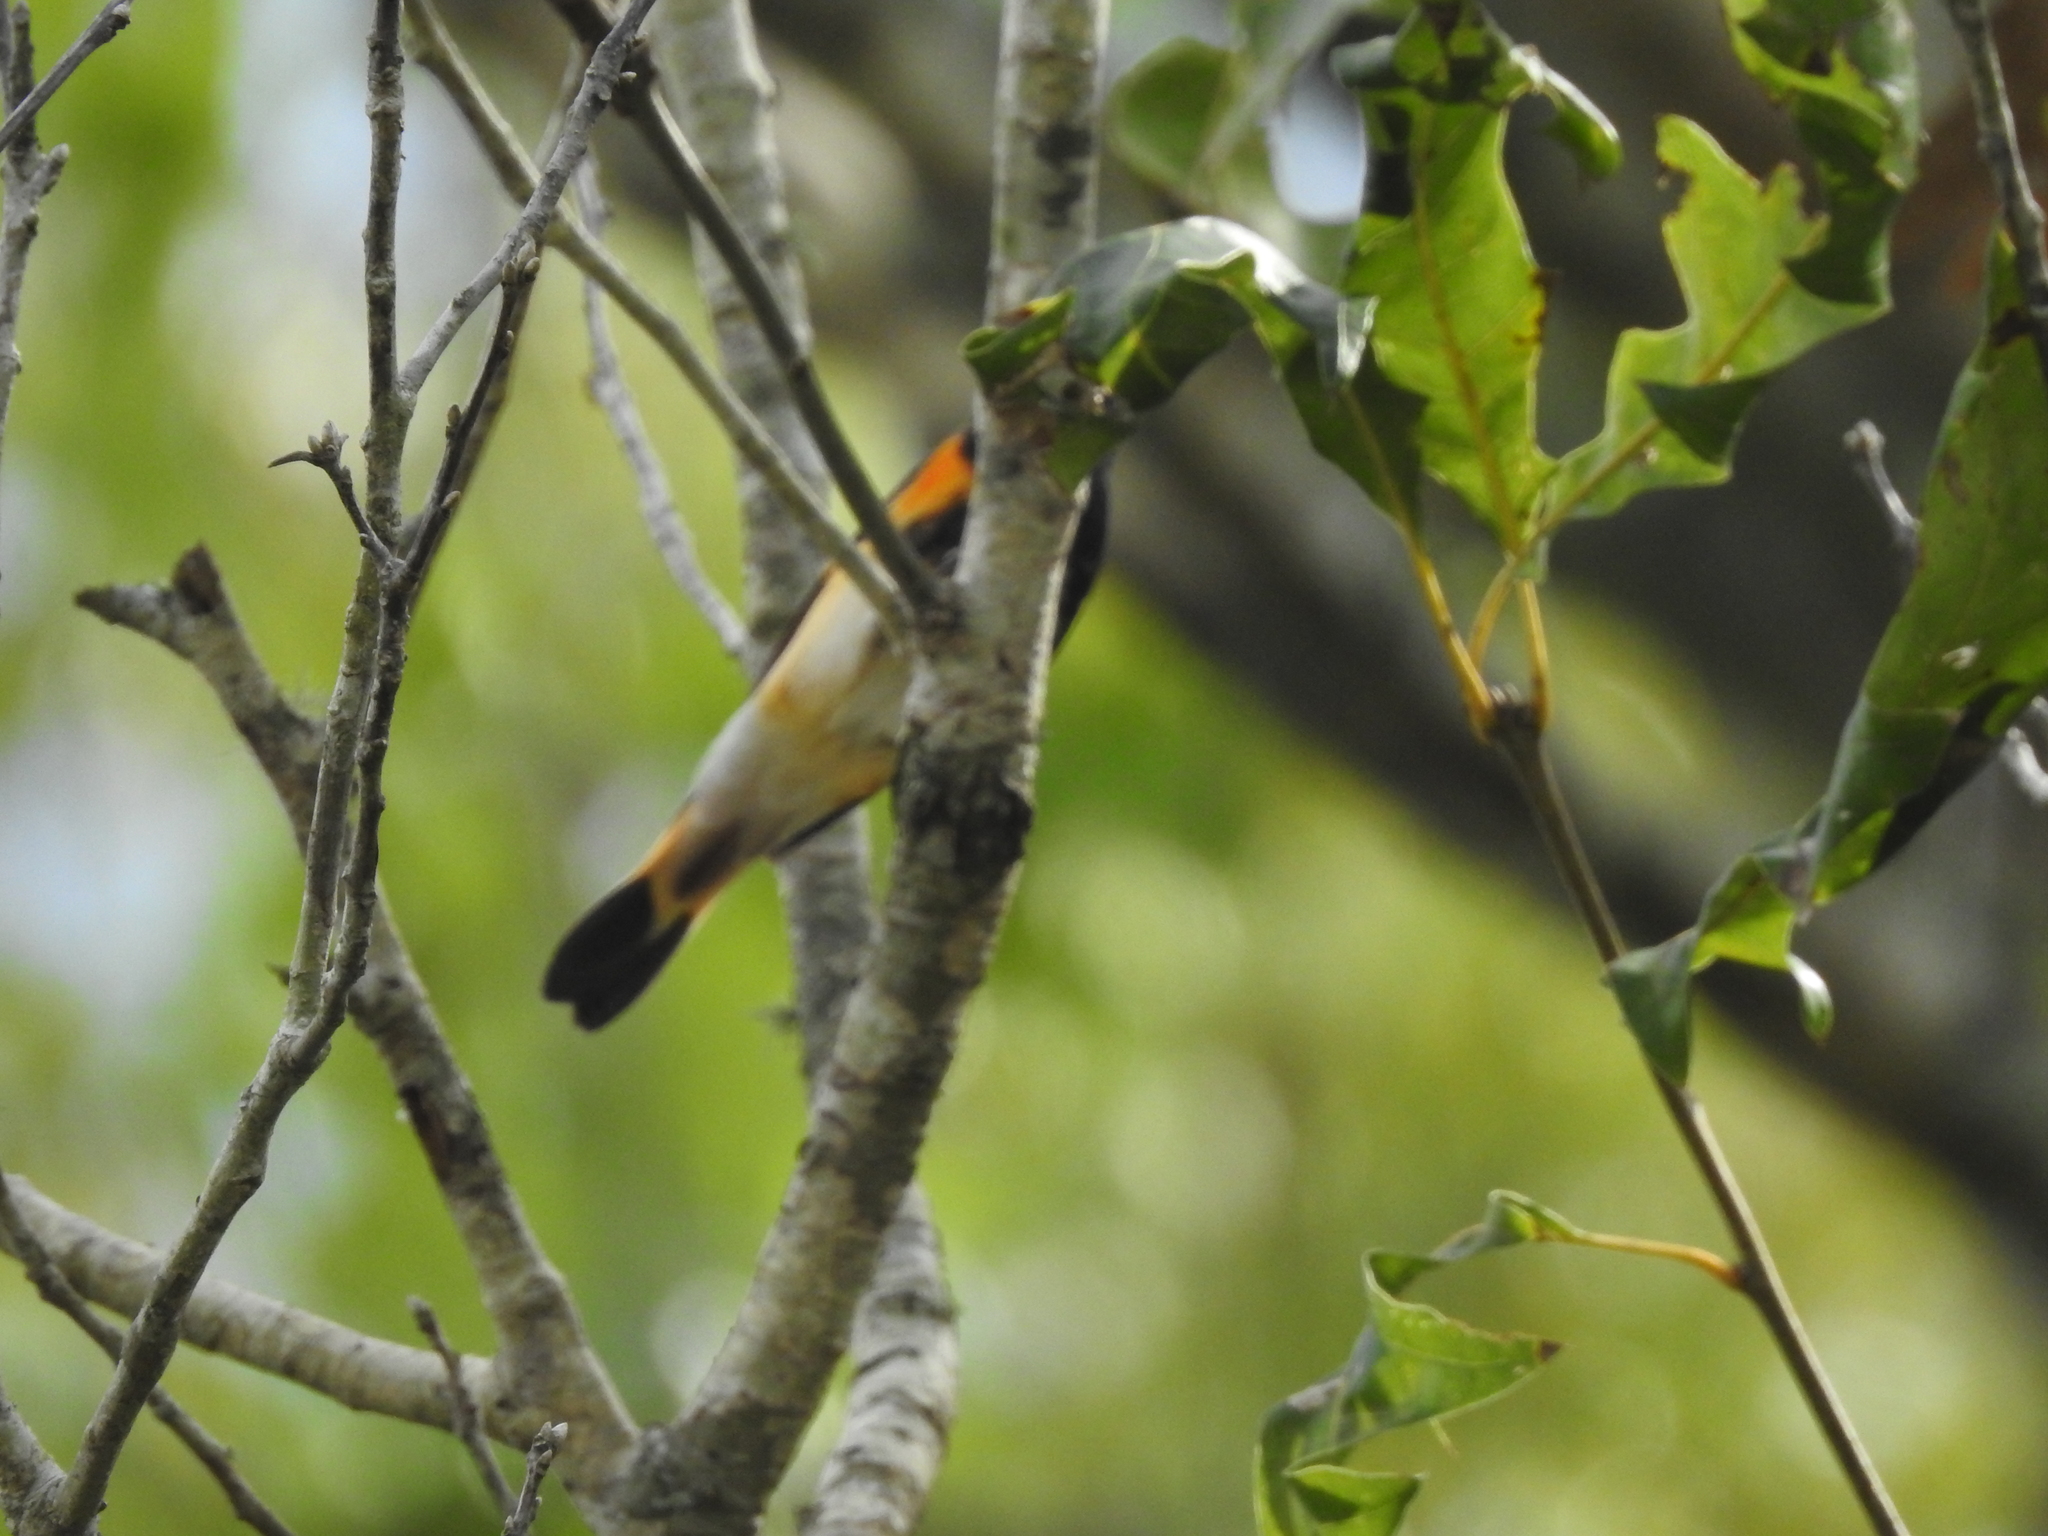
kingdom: Animalia
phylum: Chordata
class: Aves
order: Passeriformes
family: Parulidae
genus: Setophaga
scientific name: Setophaga ruticilla
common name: American redstart
